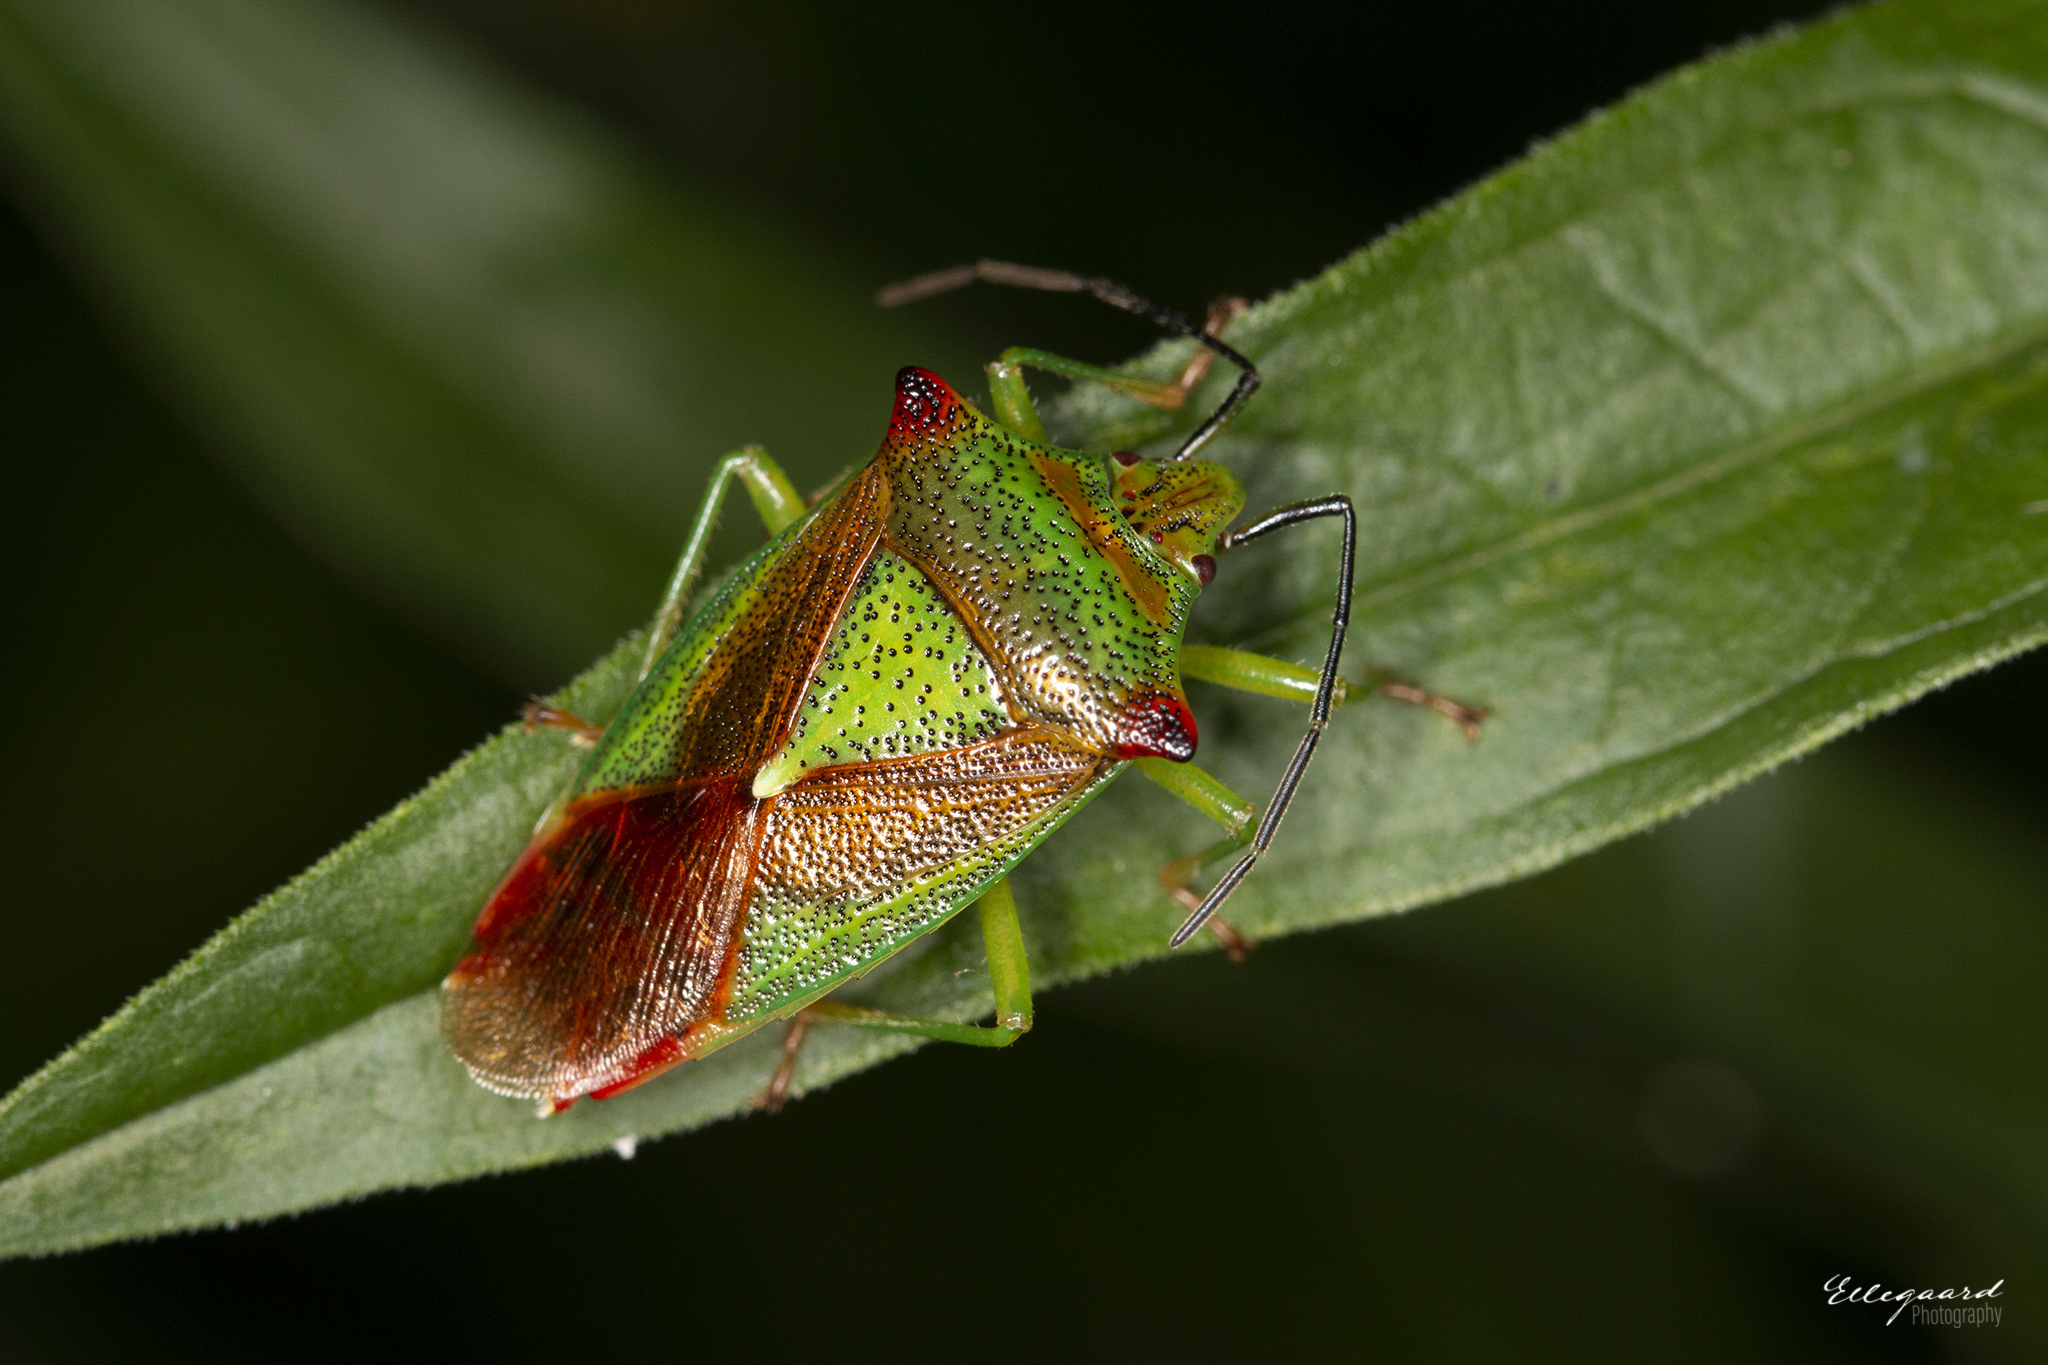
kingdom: Animalia
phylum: Arthropoda
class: Insecta
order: Hemiptera
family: Acanthosomatidae
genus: Acanthosoma
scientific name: Acanthosoma haemorrhoidale
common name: Hawthorn shieldbug
